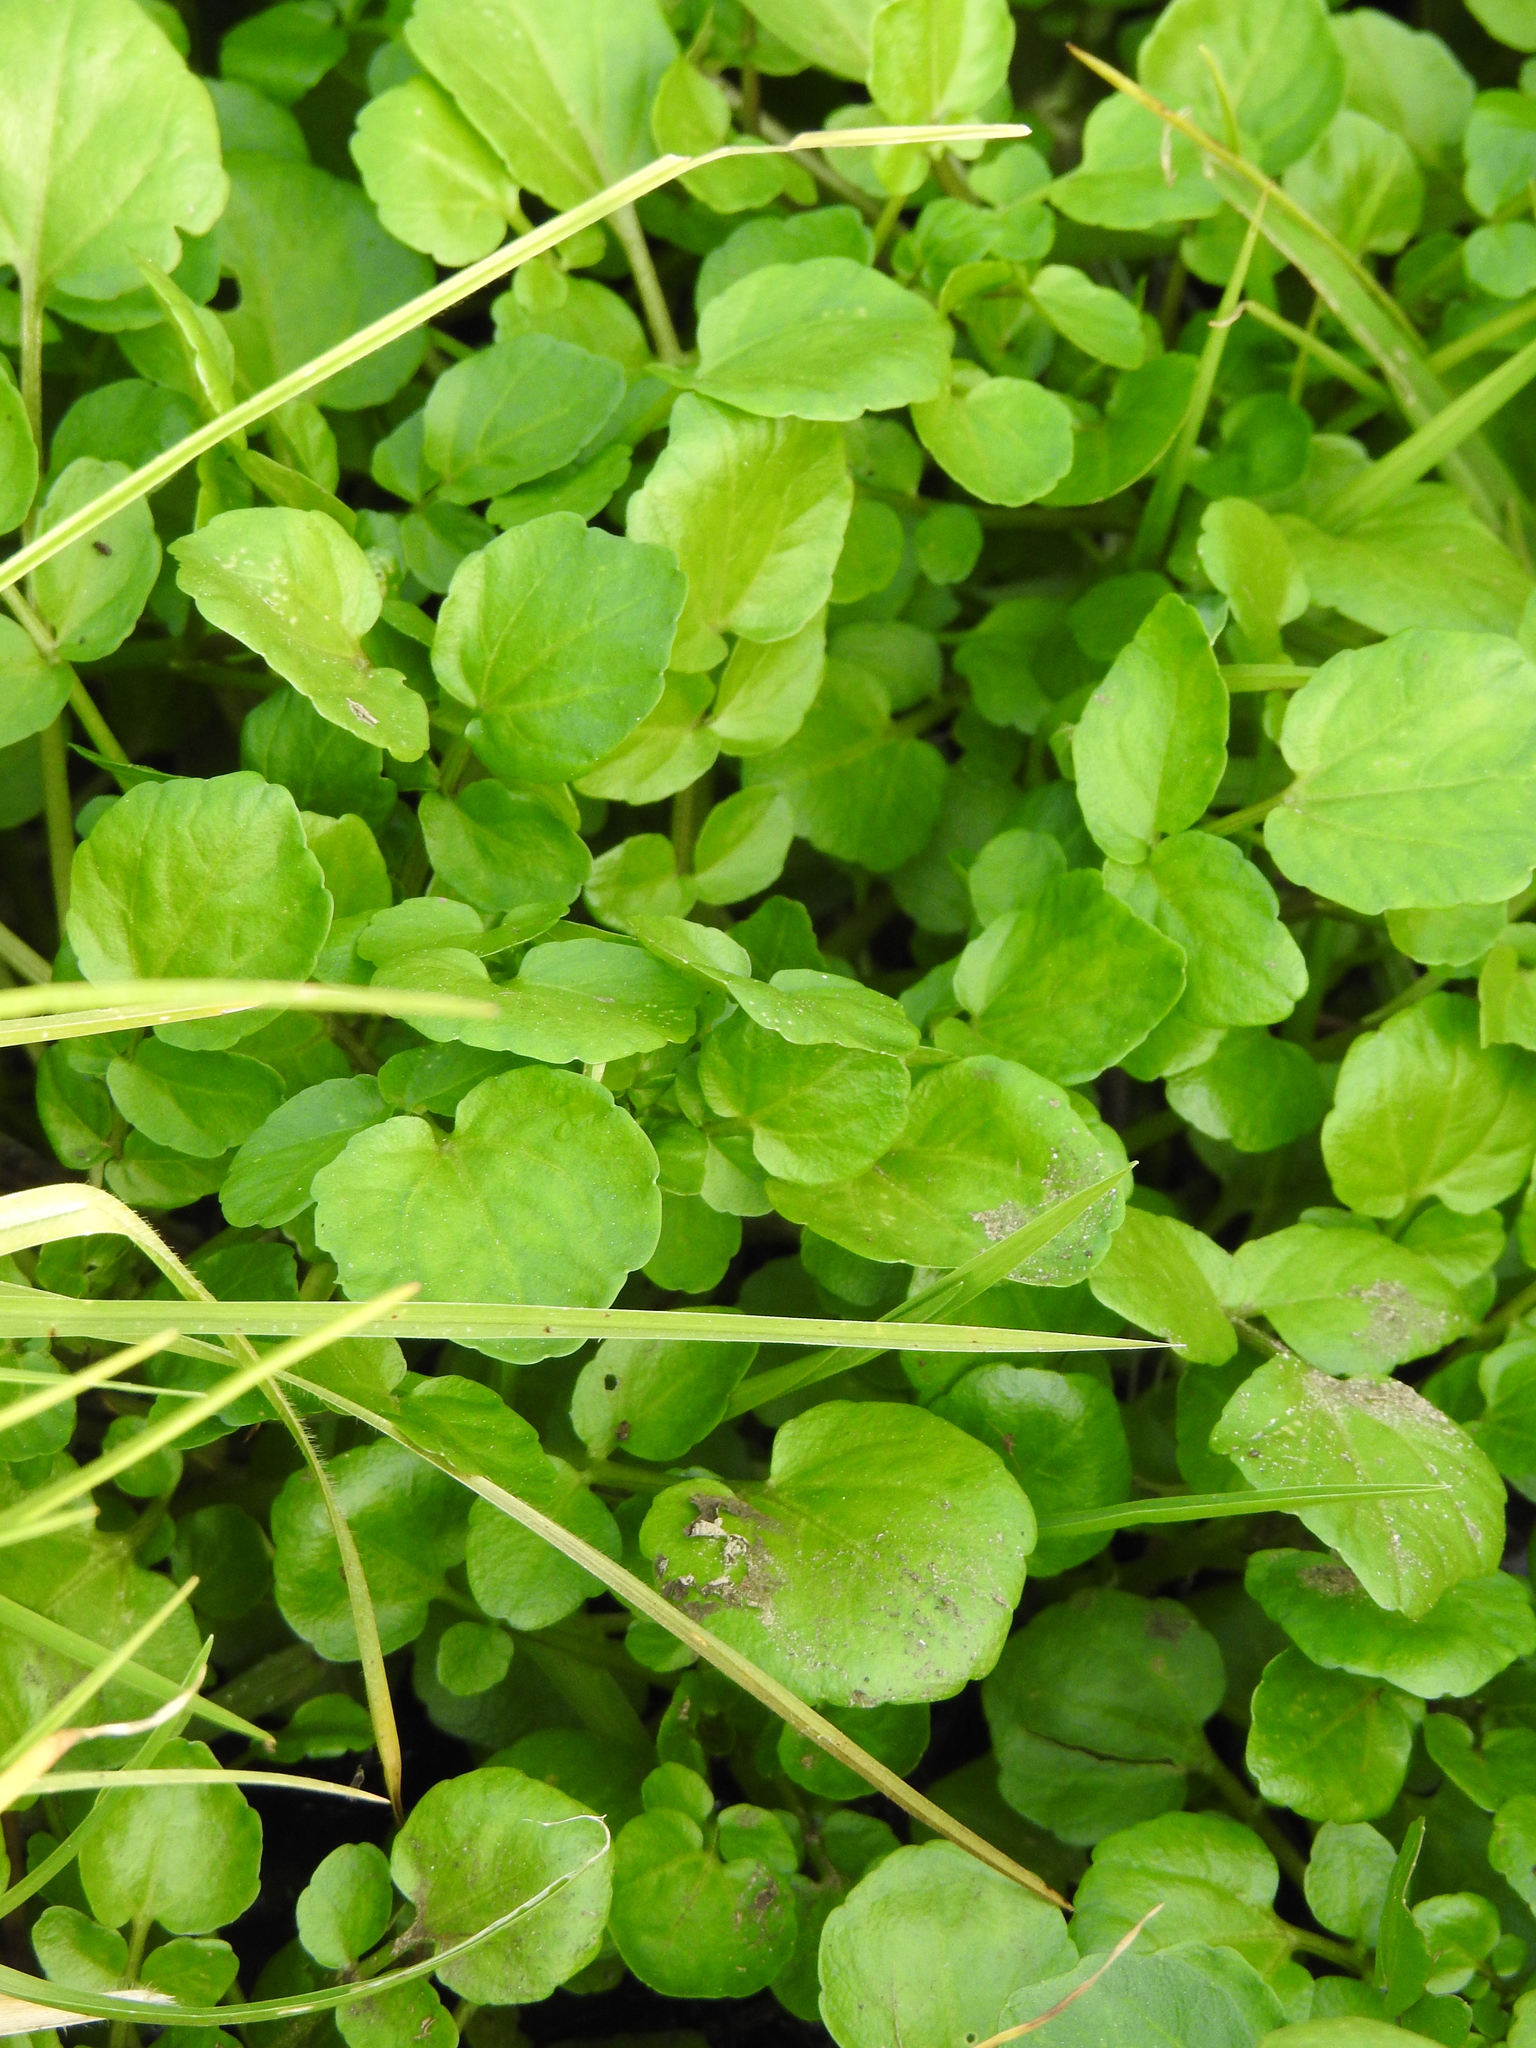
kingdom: Plantae
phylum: Tracheophyta
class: Magnoliopsida
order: Brassicales
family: Brassicaceae
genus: Nasturtium
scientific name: Nasturtium officinale
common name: Watercress
